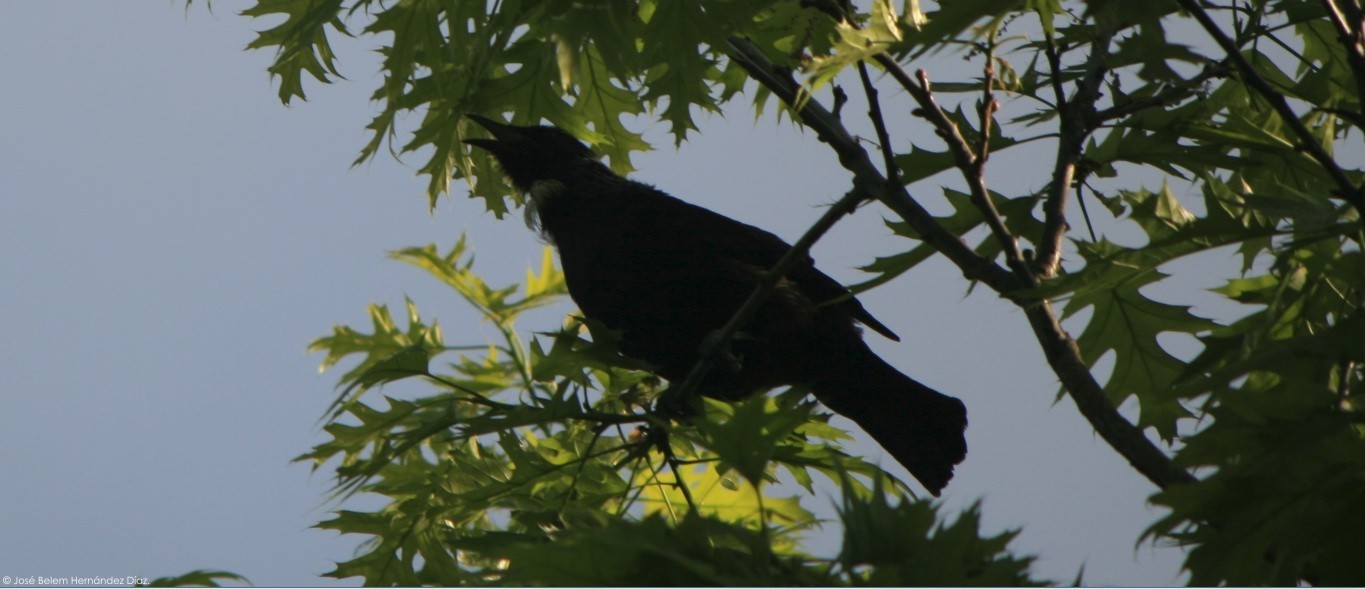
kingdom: Animalia
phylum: Chordata
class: Aves
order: Passeriformes
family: Meliphagidae
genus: Prosthemadera
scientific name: Prosthemadera novaeseelandiae
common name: Tui
